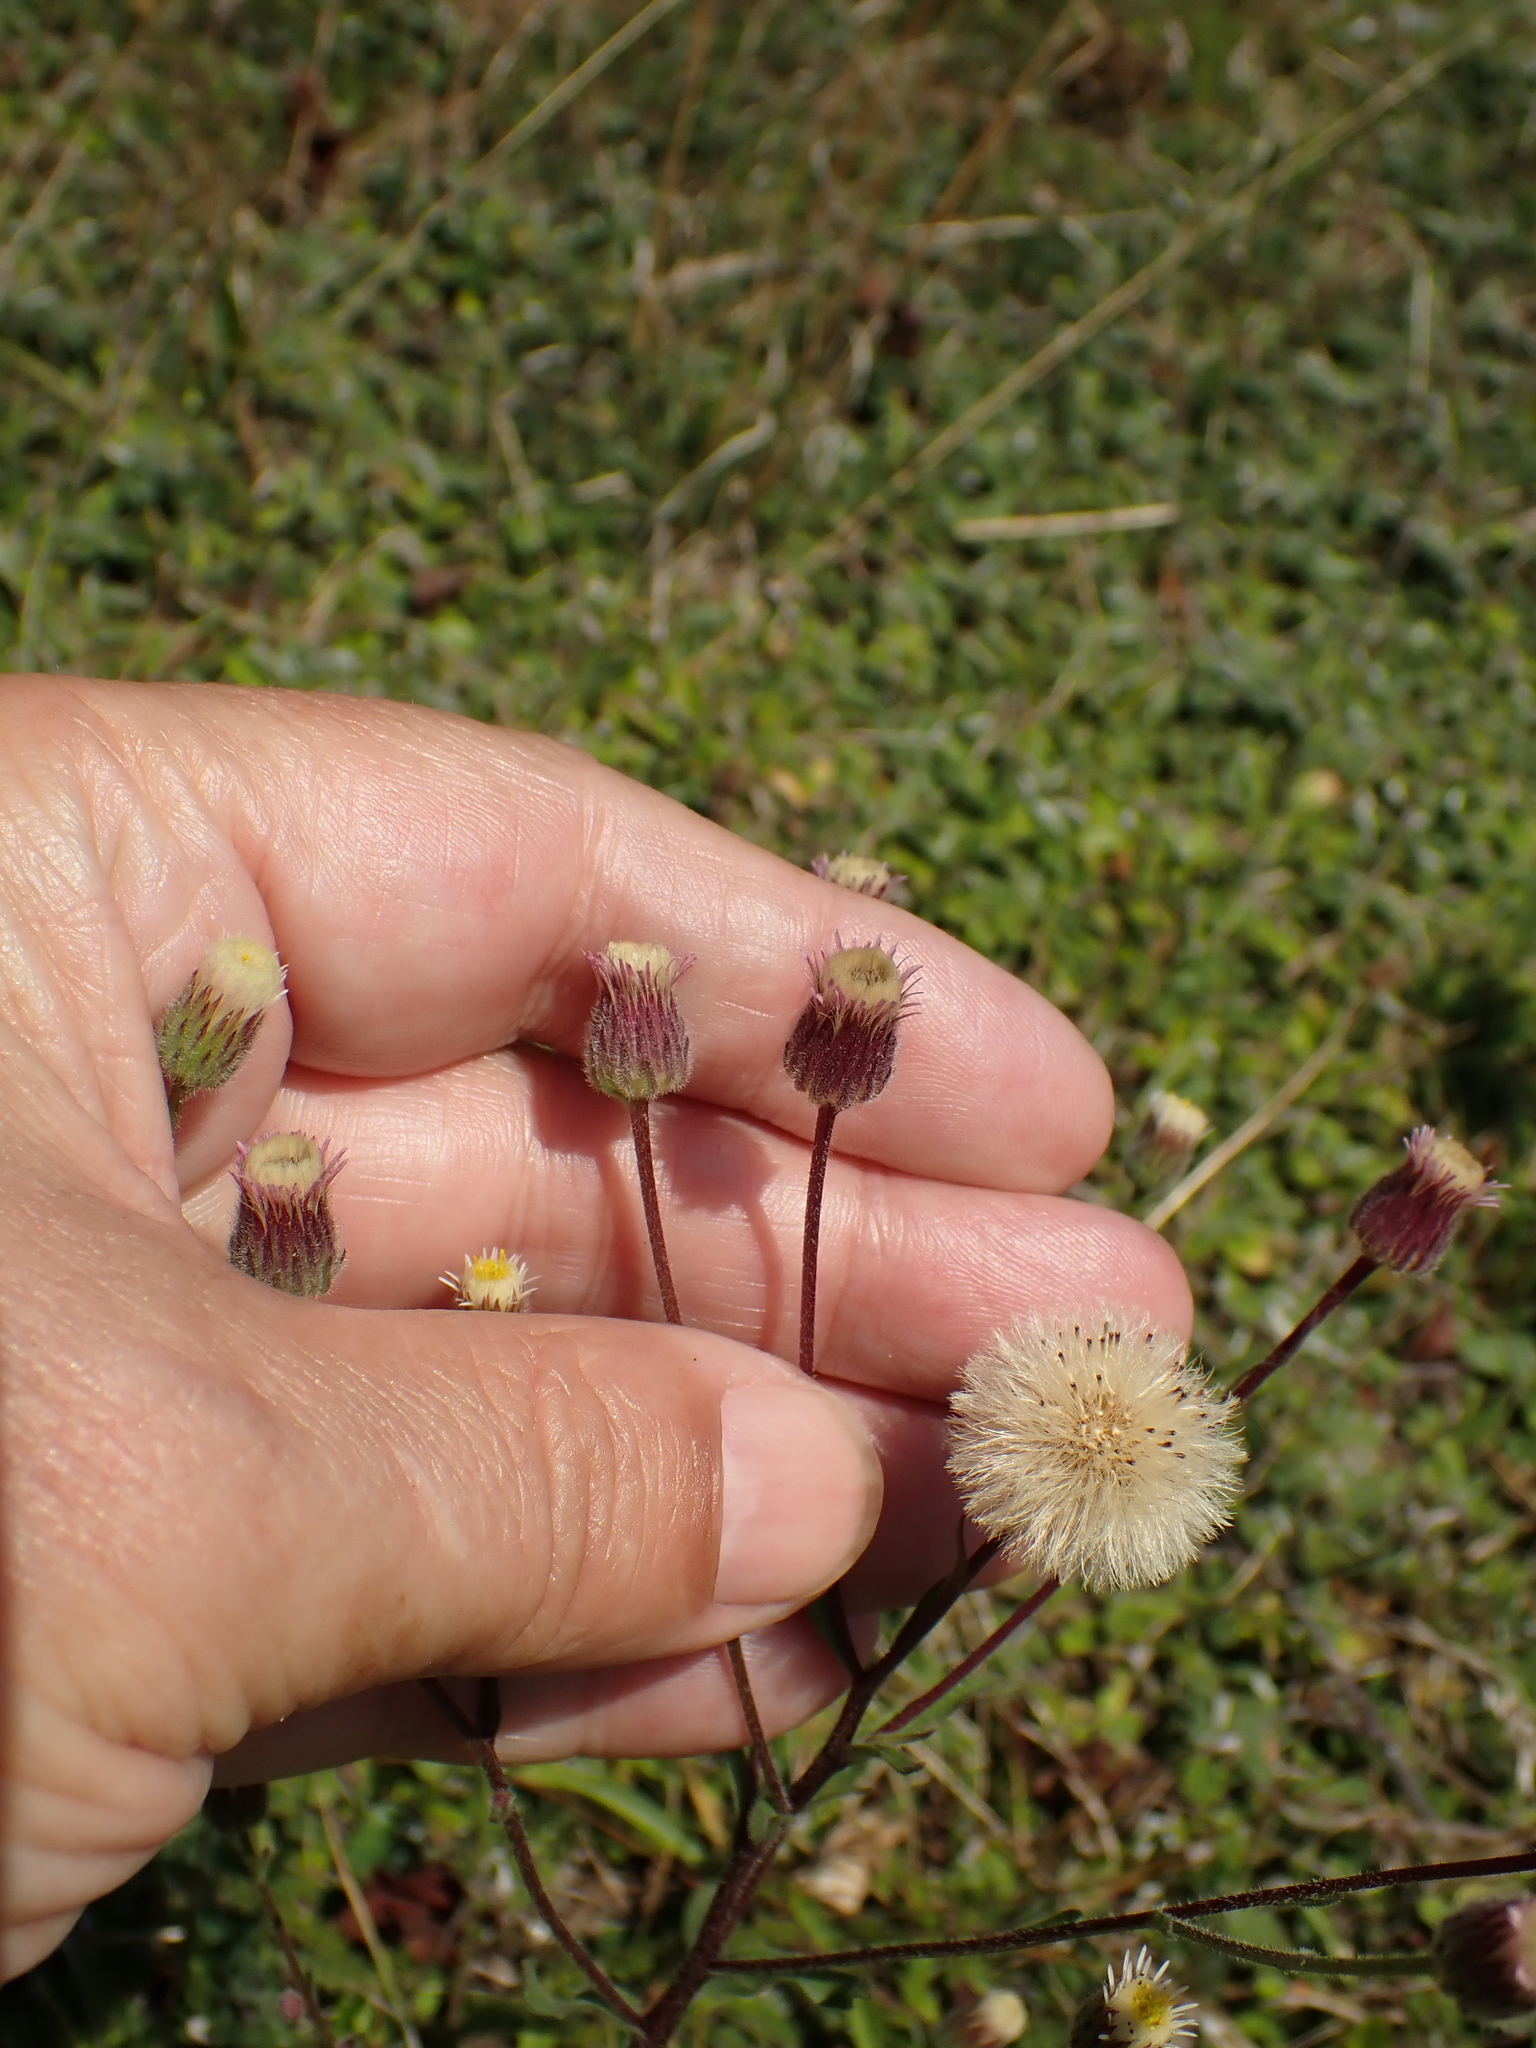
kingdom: Plantae
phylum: Tracheophyta
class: Magnoliopsida
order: Asterales
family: Asteraceae
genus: Erigeron
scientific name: Erigeron acris
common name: Blue fleabane
